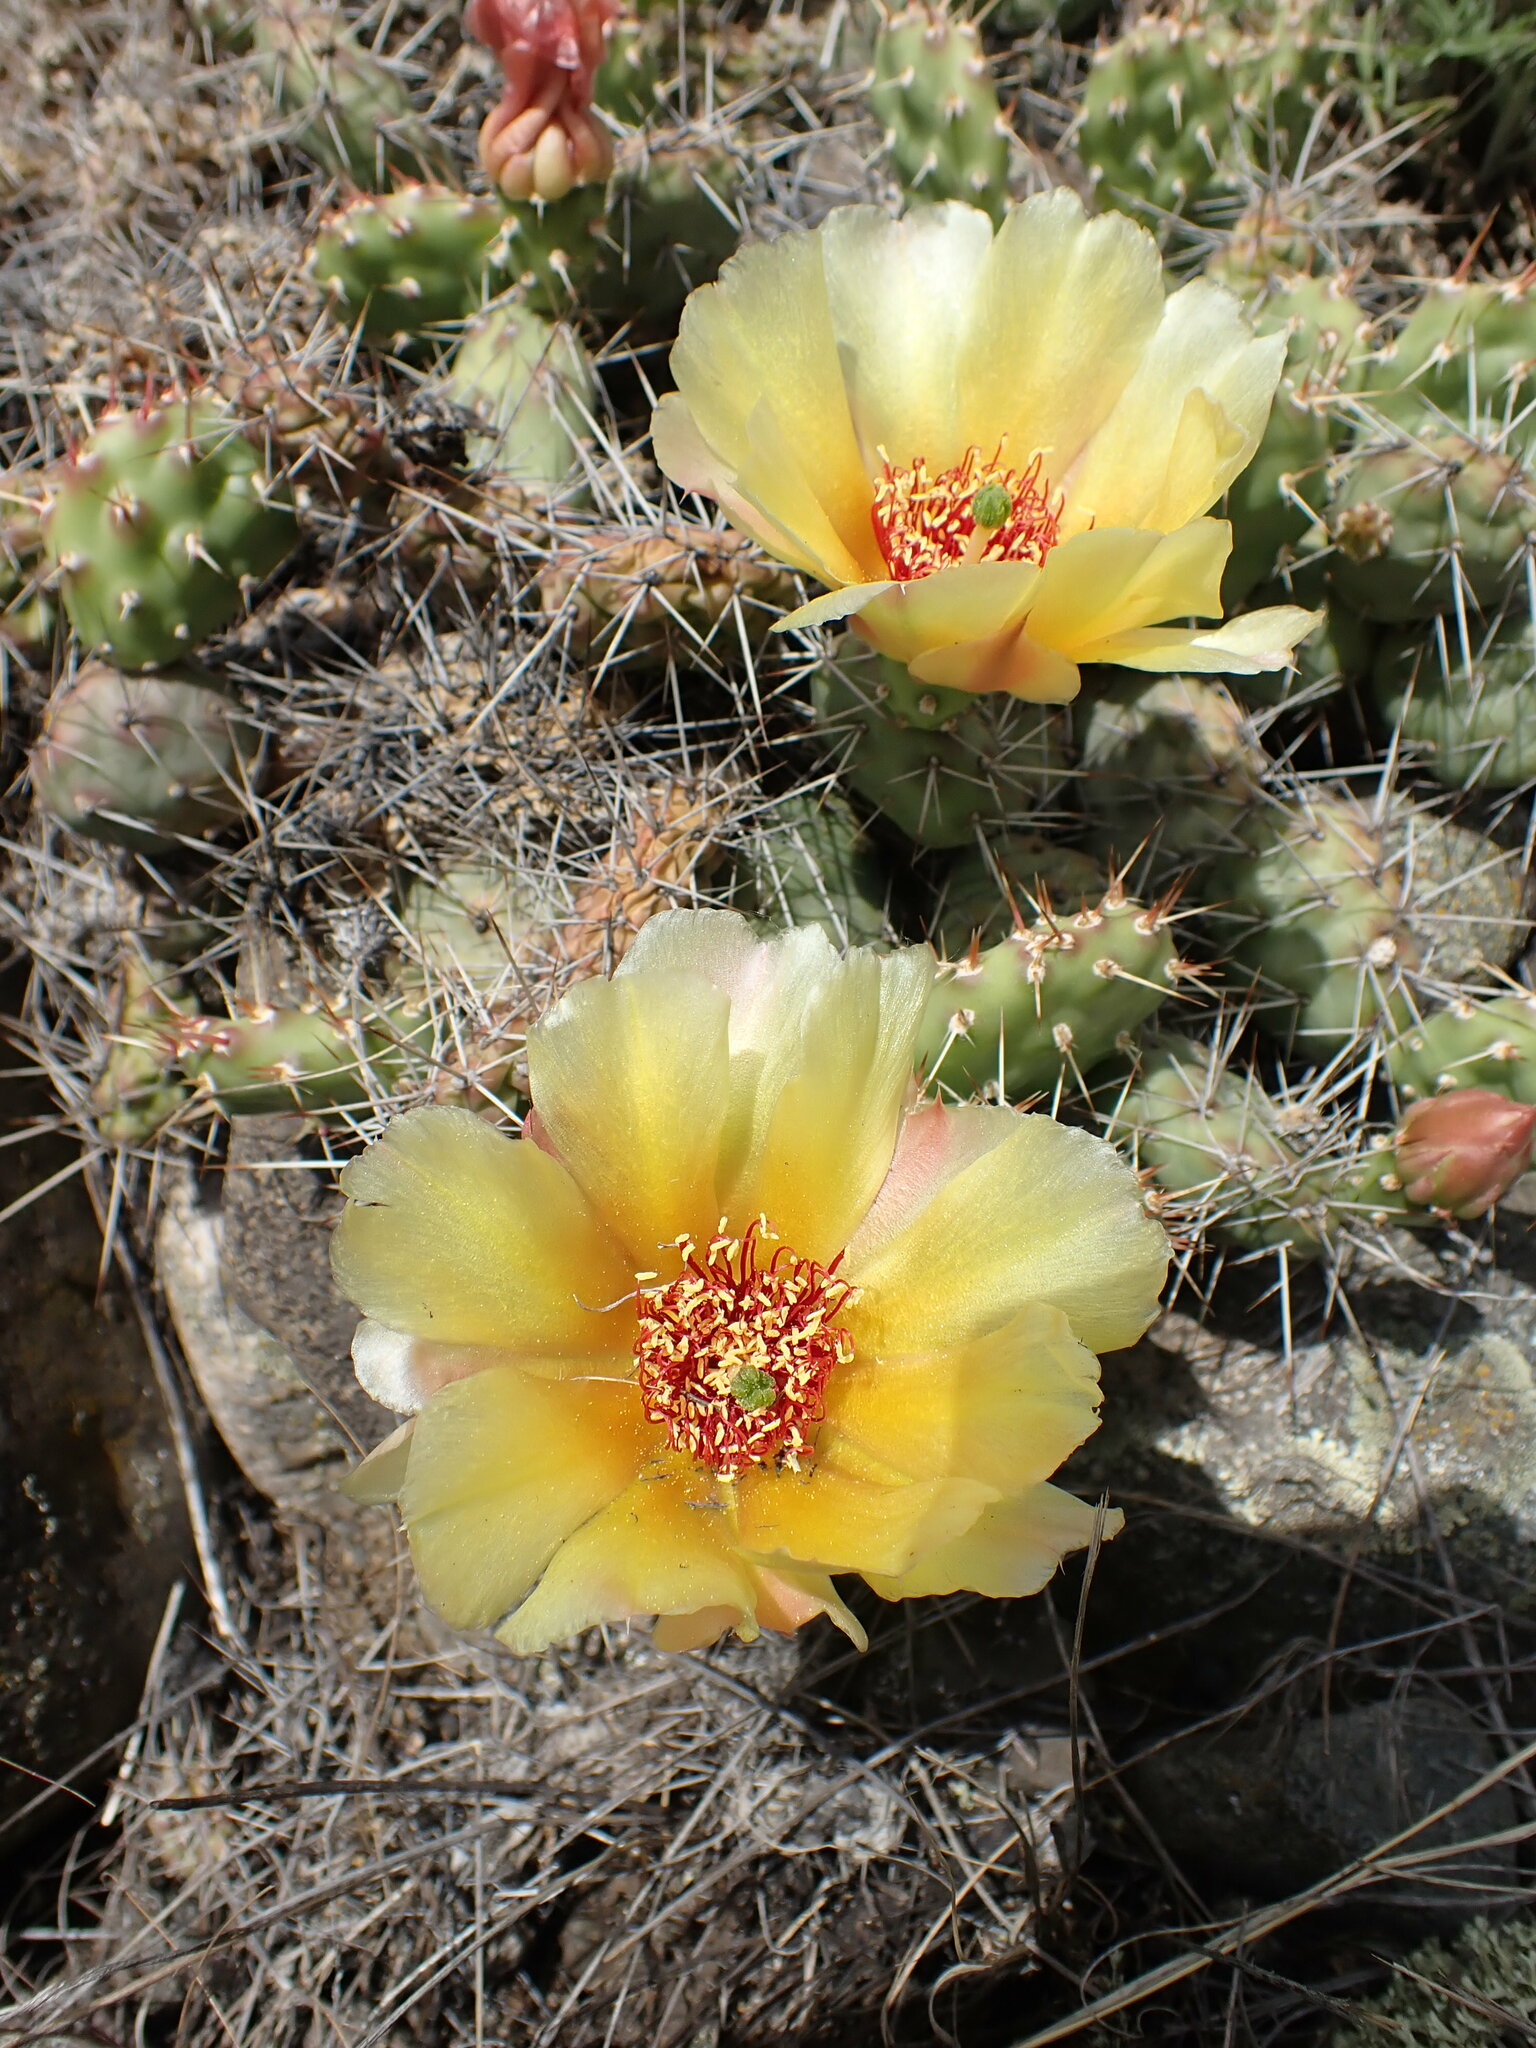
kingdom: Plantae
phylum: Tracheophyta
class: Magnoliopsida
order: Caryophyllales
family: Cactaceae
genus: Opuntia
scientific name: Opuntia fragilis
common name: Brittle cactus
